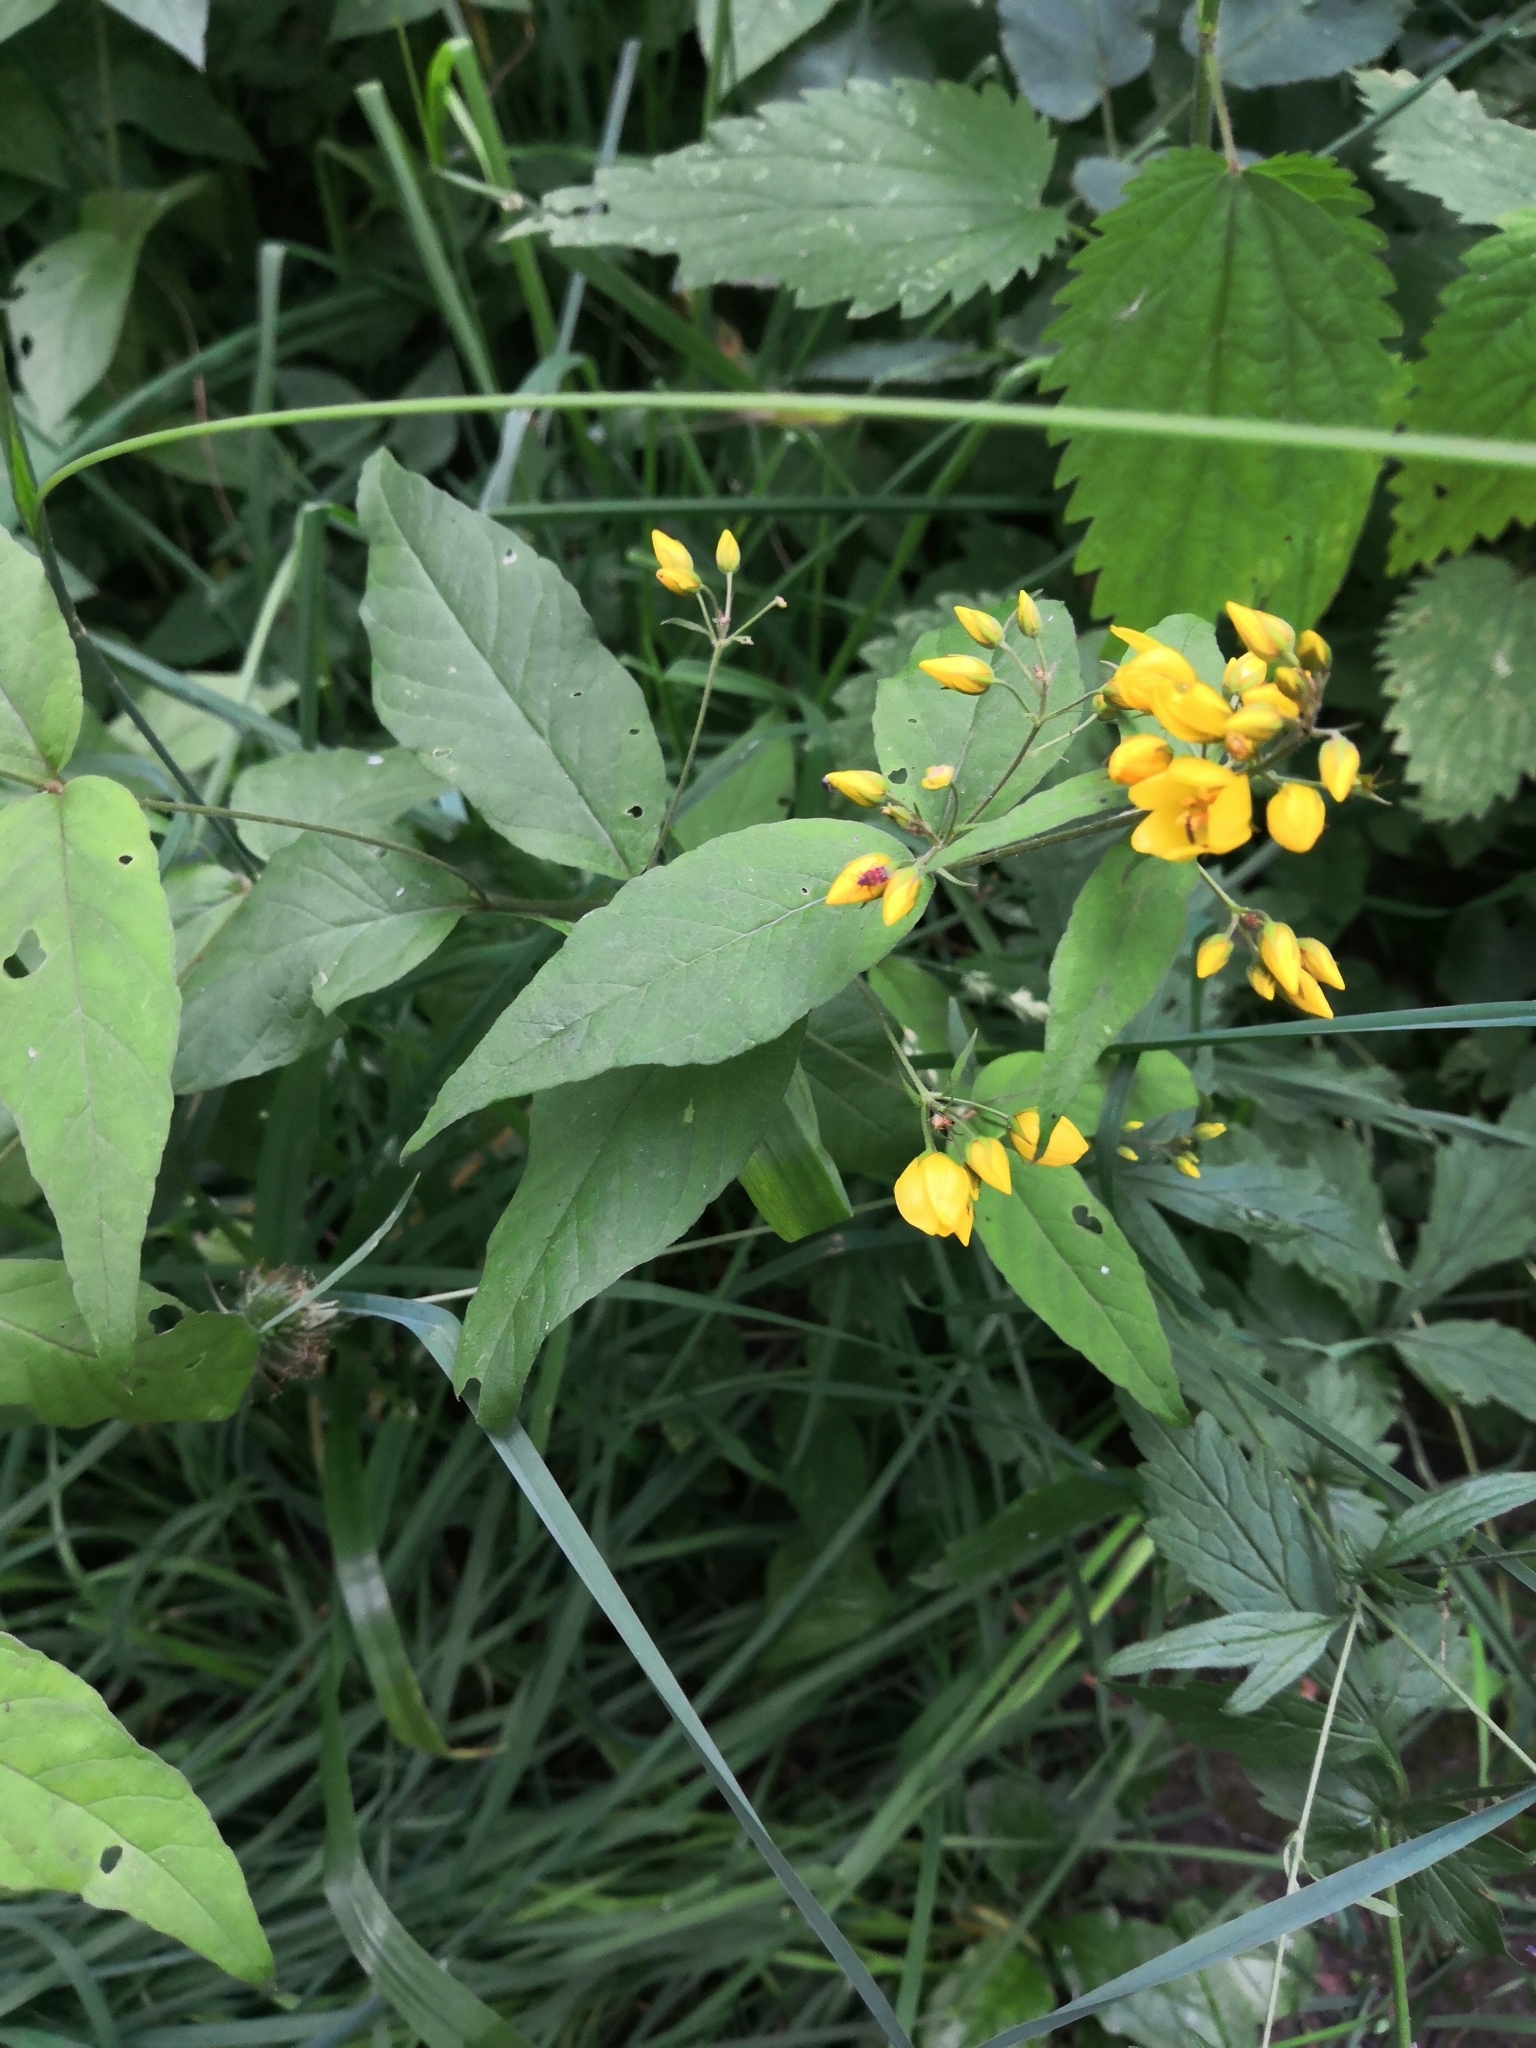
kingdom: Plantae
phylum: Tracheophyta
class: Magnoliopsida
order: Ericales
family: Primulaceae
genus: Lysimachia
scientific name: Lysimachia vulgaris
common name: Yellow loosestrife
